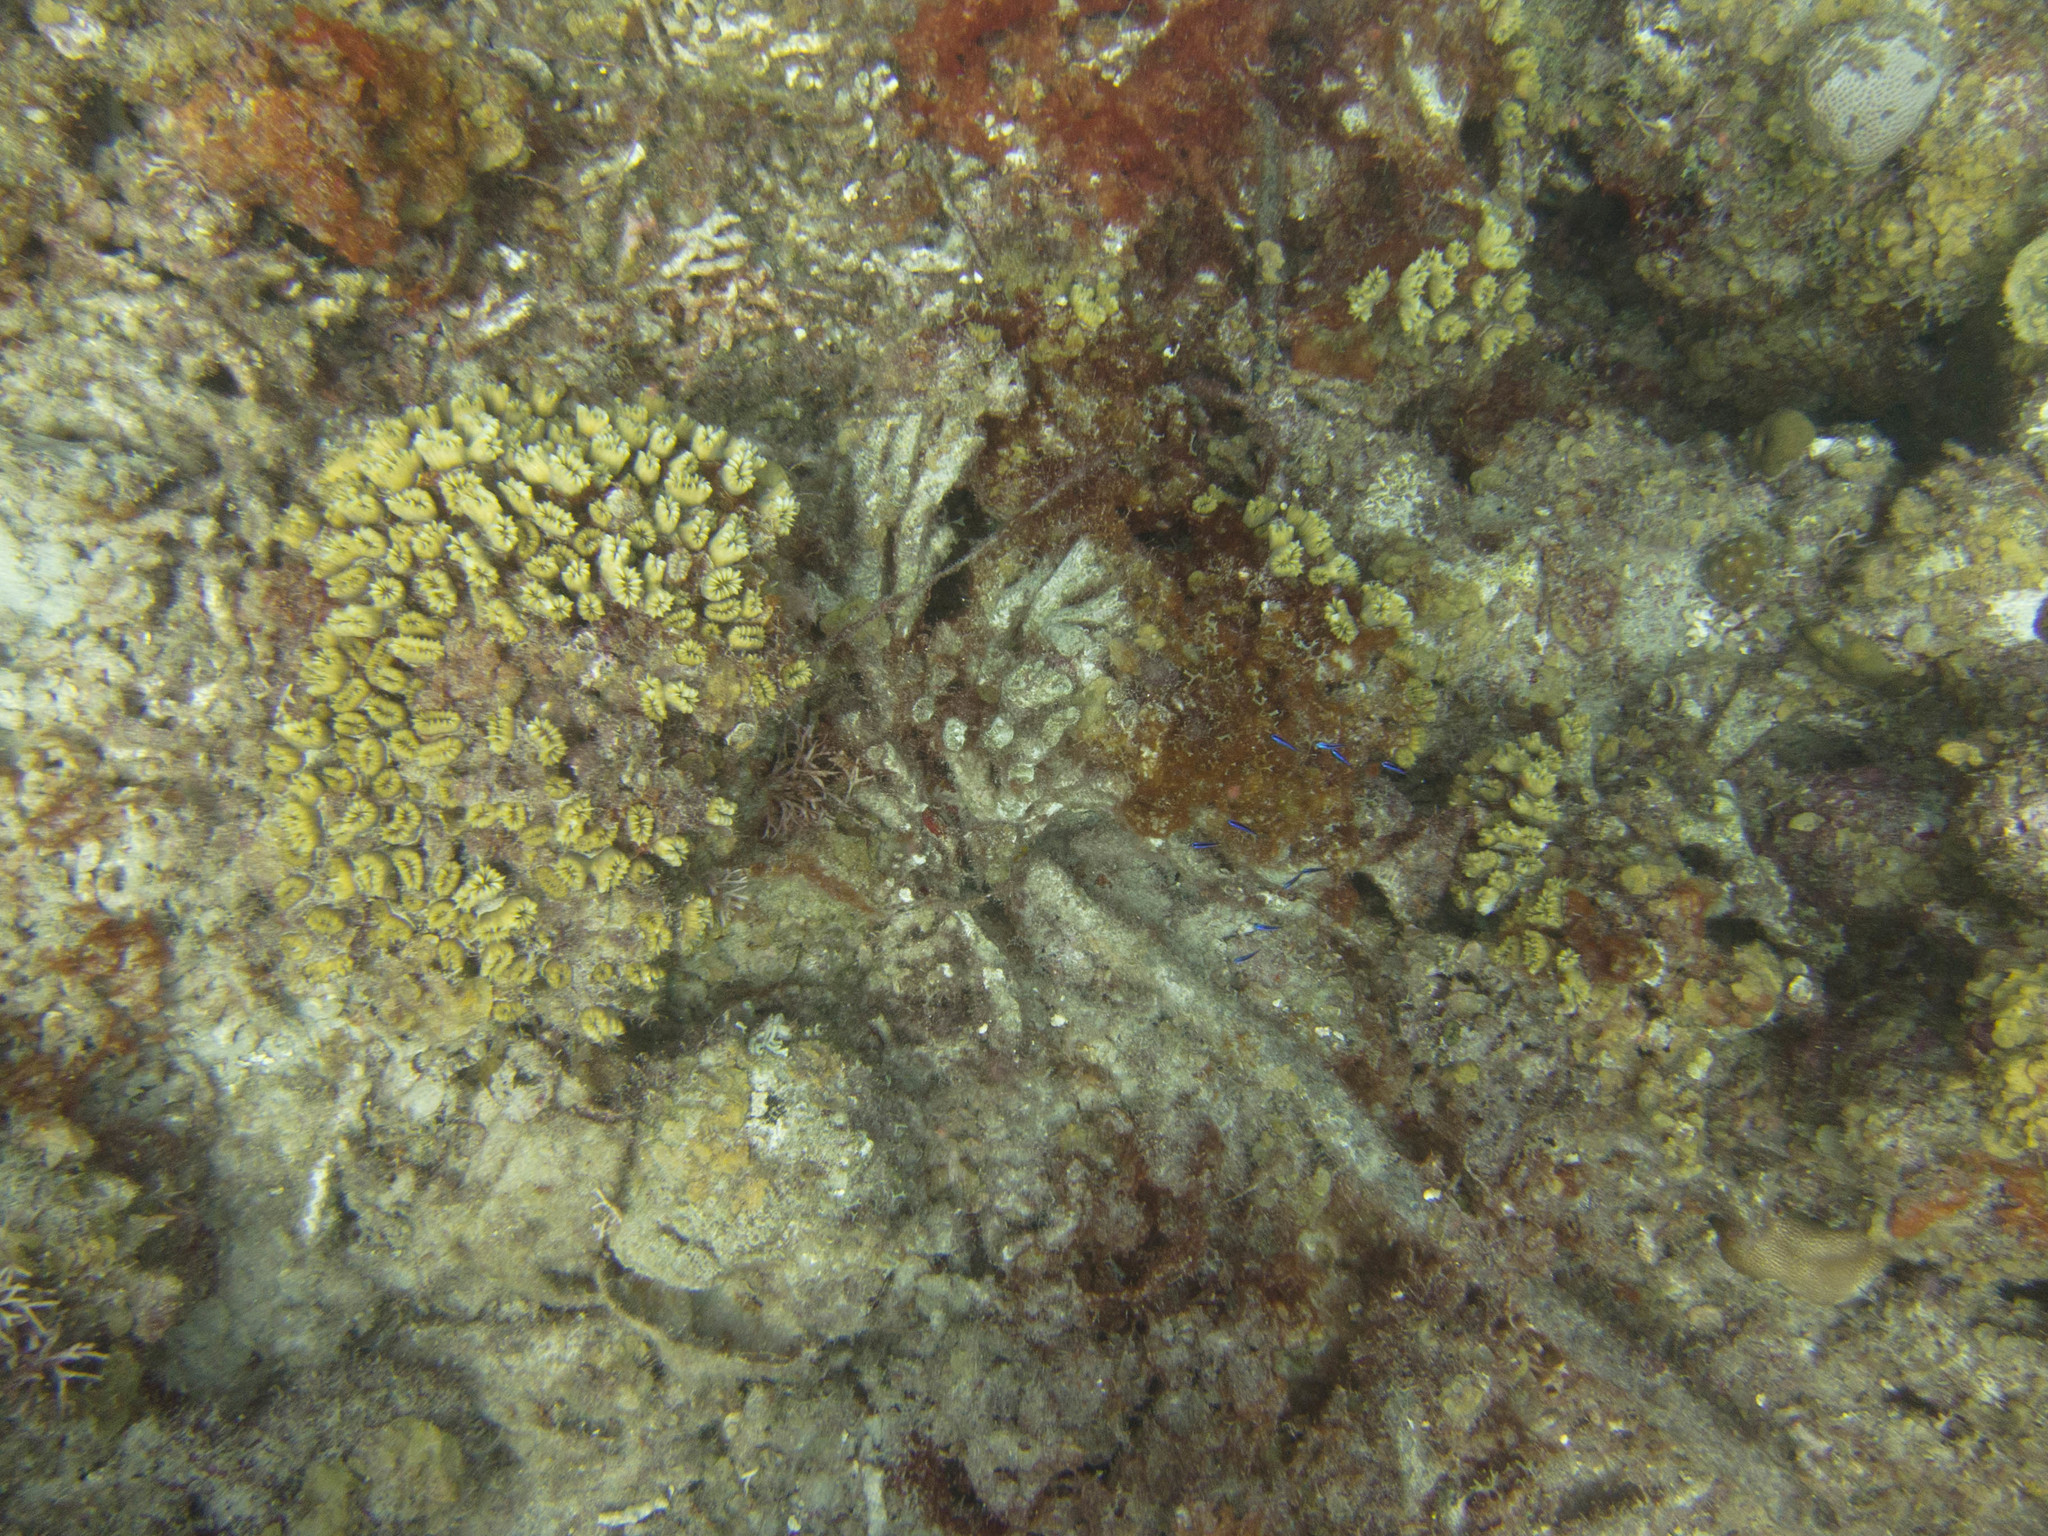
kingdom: Animalia
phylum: Cnidaria
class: Anthozoa
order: Scleractinia
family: Meandrinidae
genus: Eusmilia
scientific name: Eusmilia fastigiata
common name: Smooth flower coral
